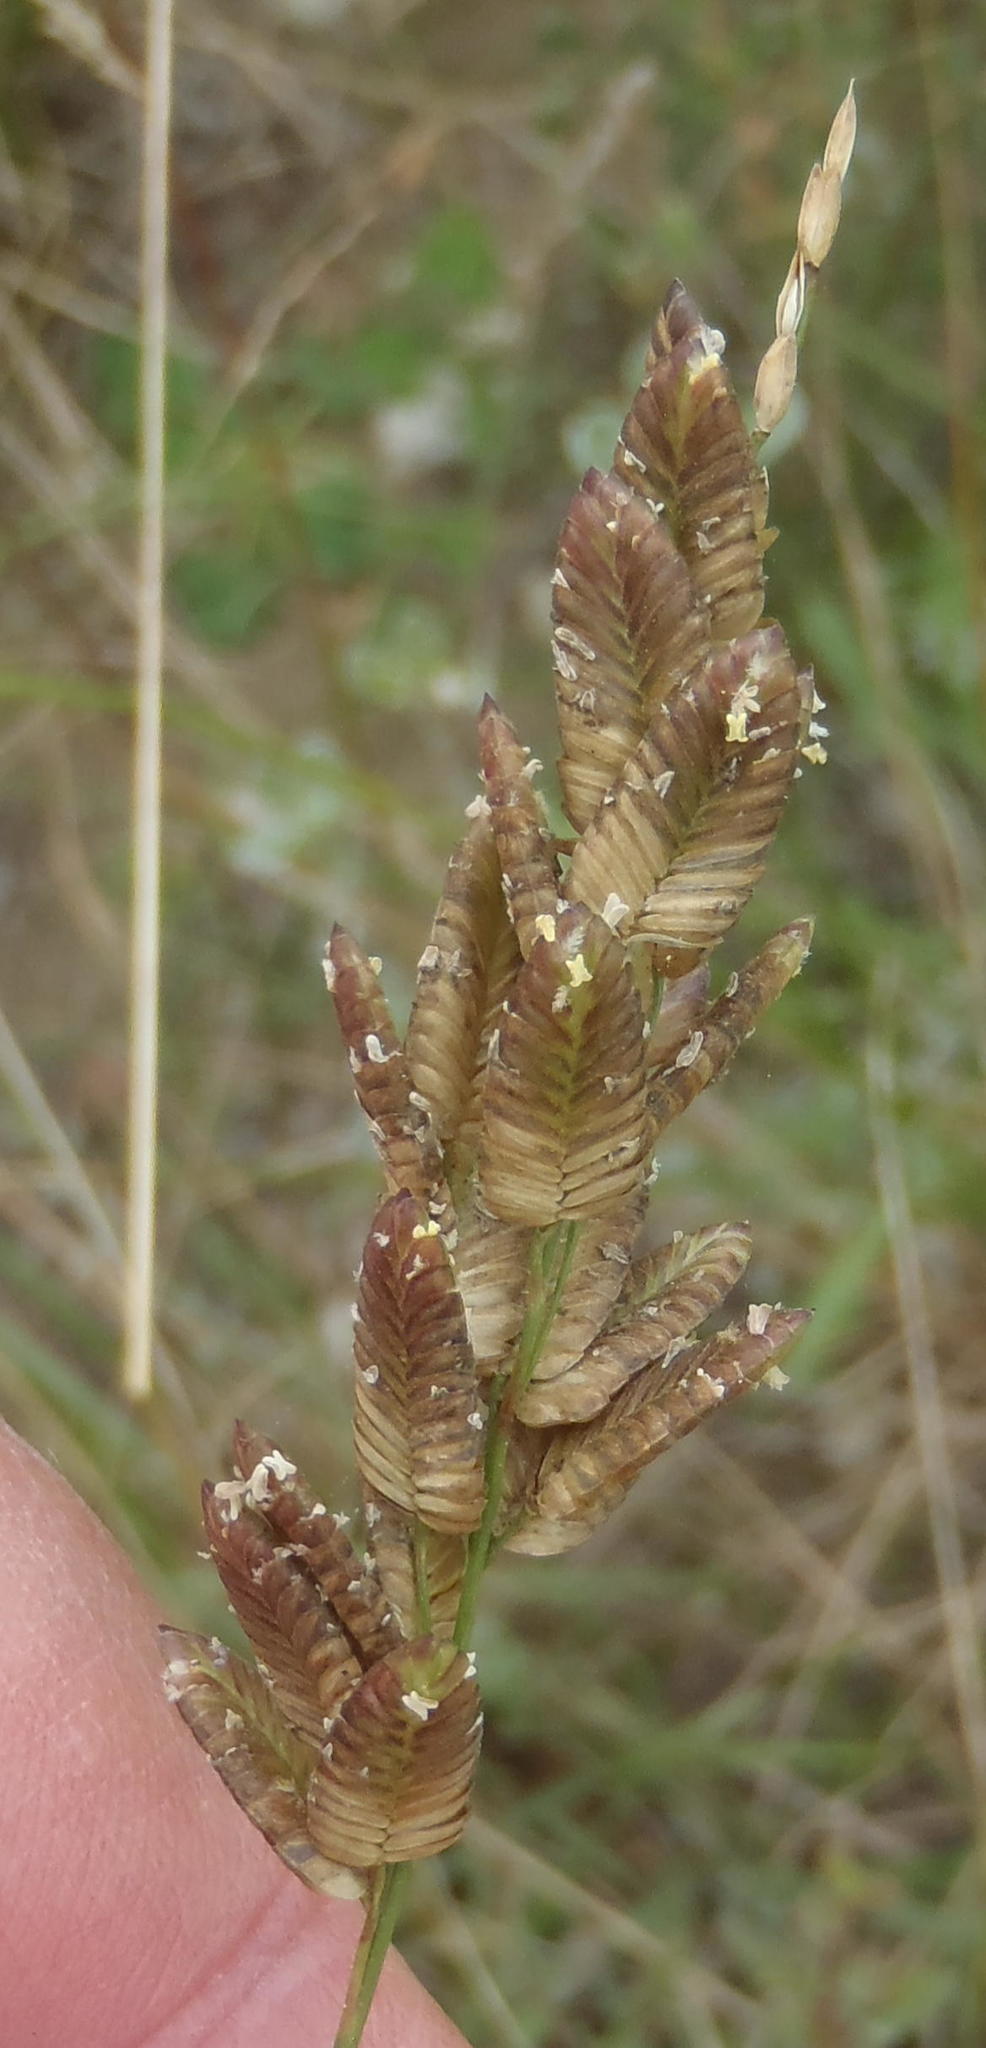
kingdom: Plantae
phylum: Tracheophyta
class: Liliopsida
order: Poales
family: Poaceae
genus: Eragrostis
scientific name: Eragrostis capensis
